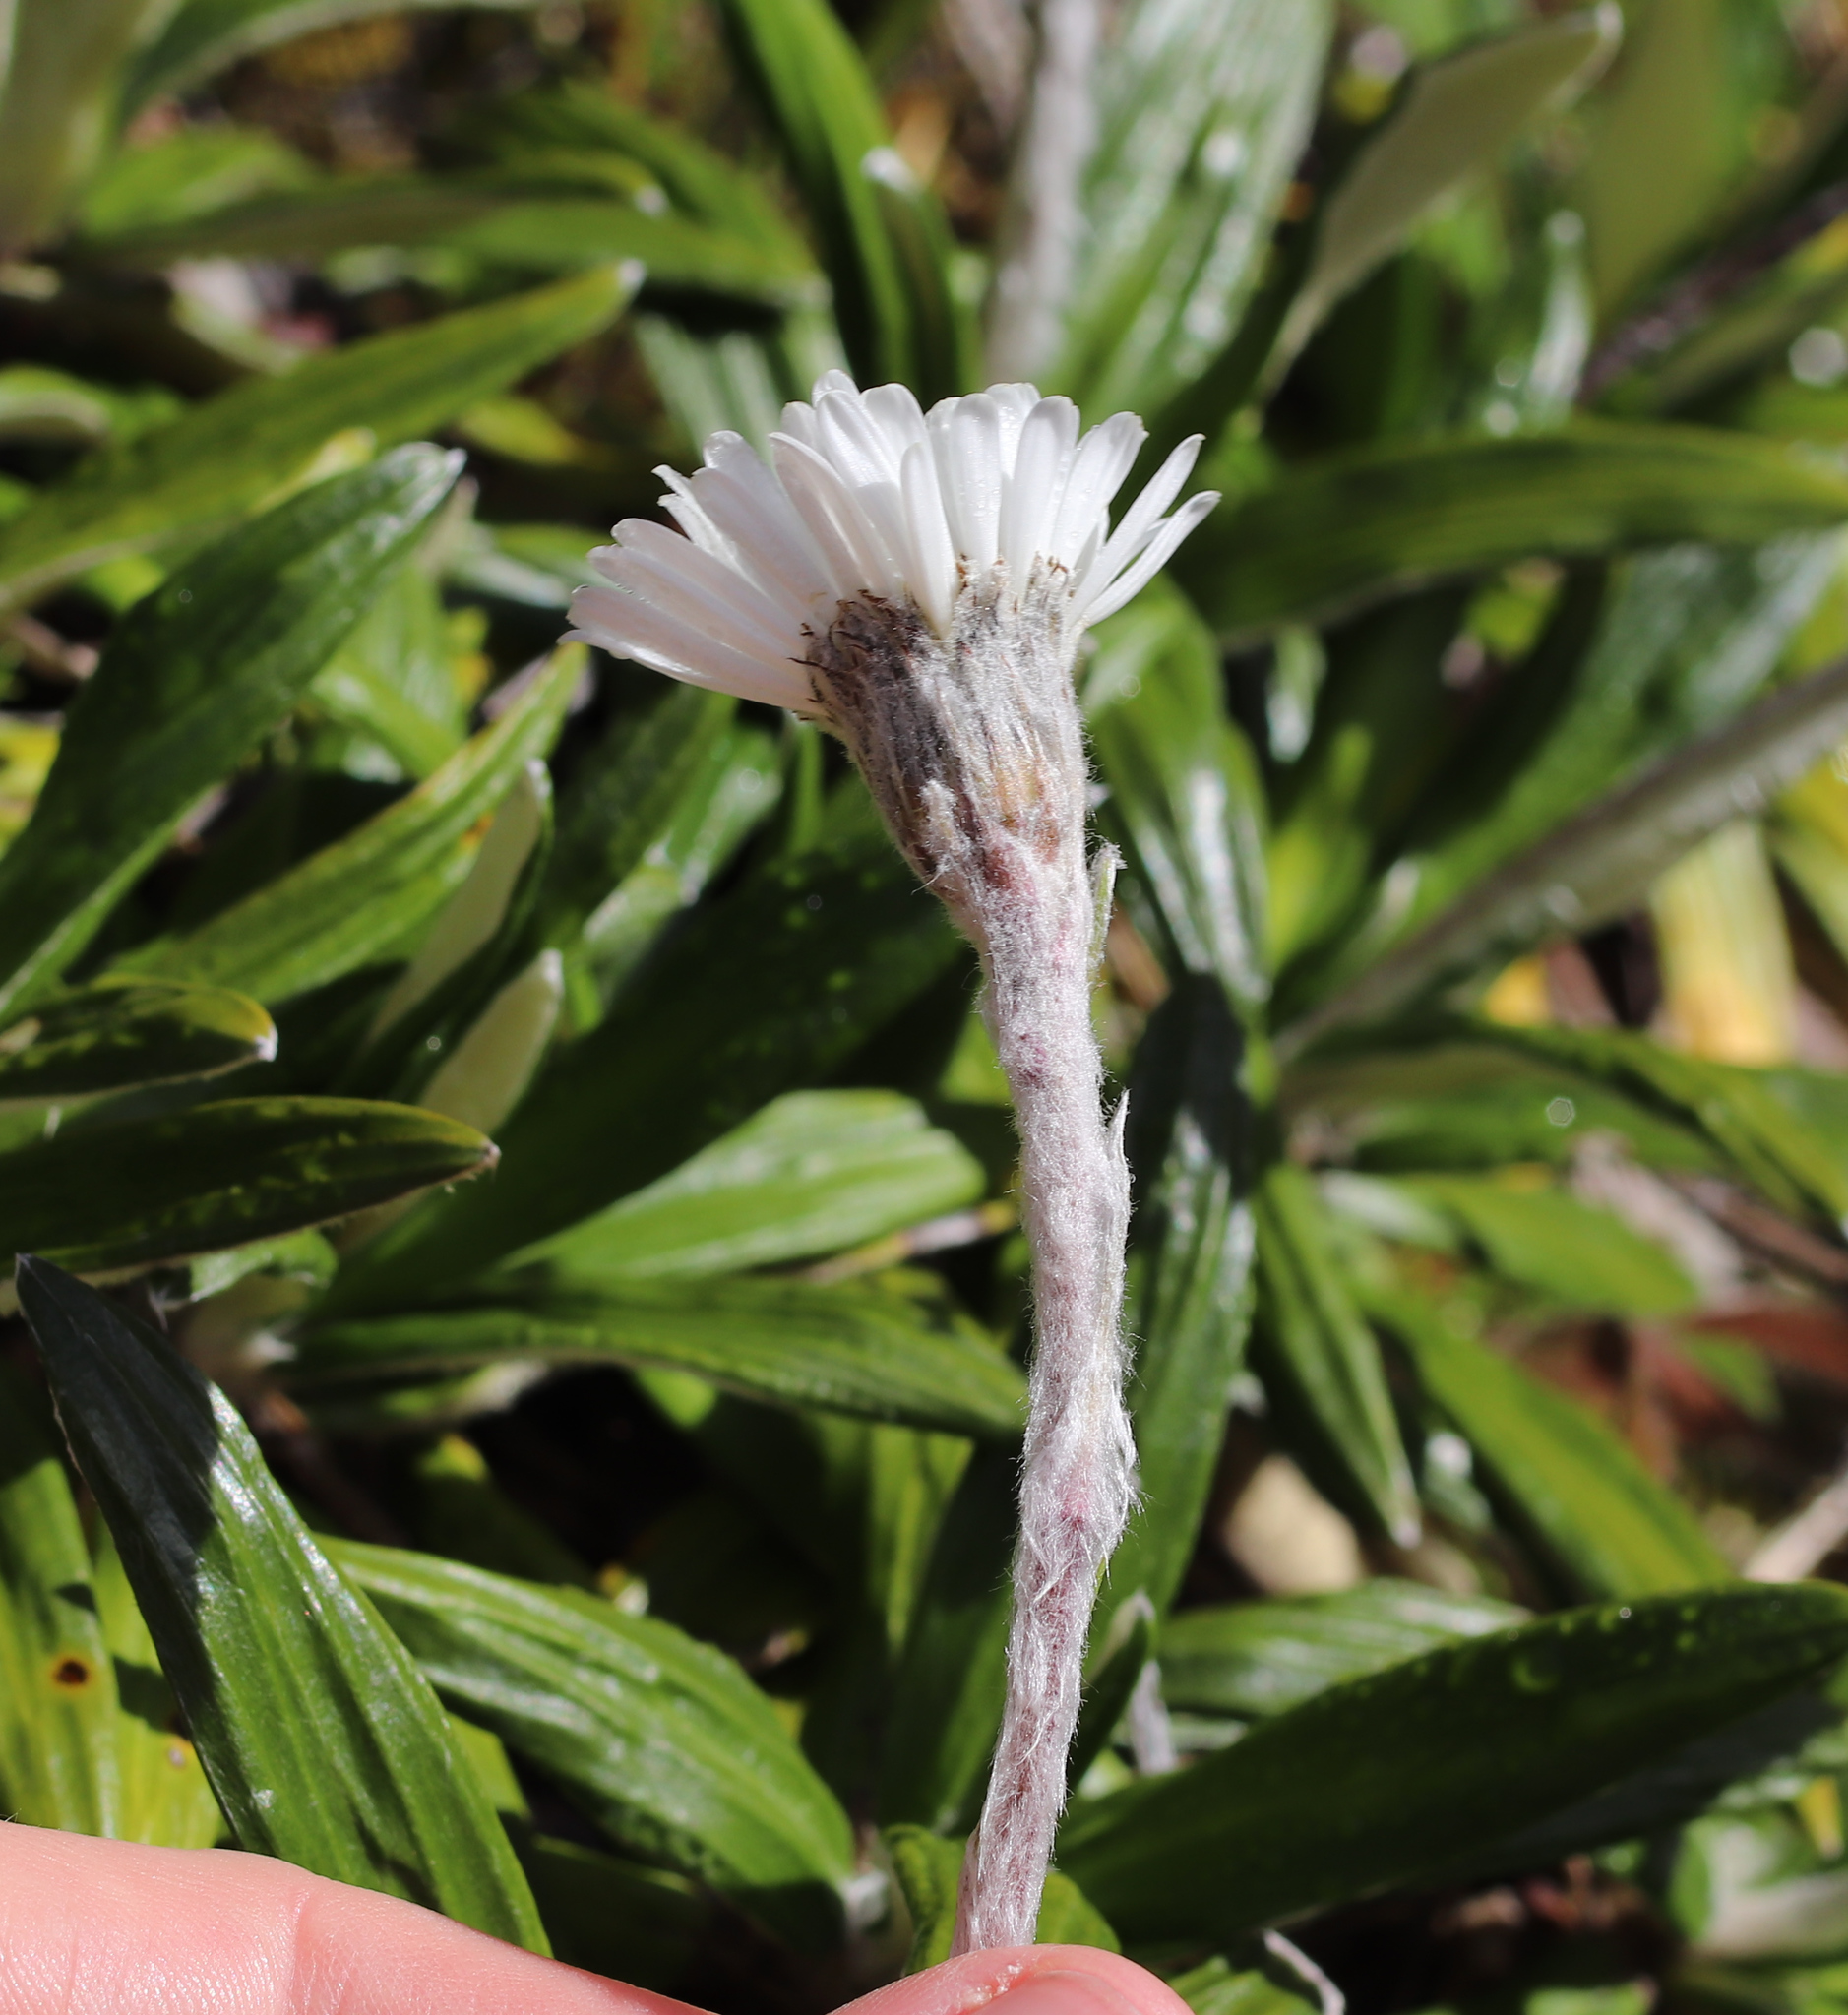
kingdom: Plantae
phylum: Tracheophyta
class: Magnoliopsida
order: Asterales
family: Asteraceae
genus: Celmisia
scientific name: Celmisia spectabilis
